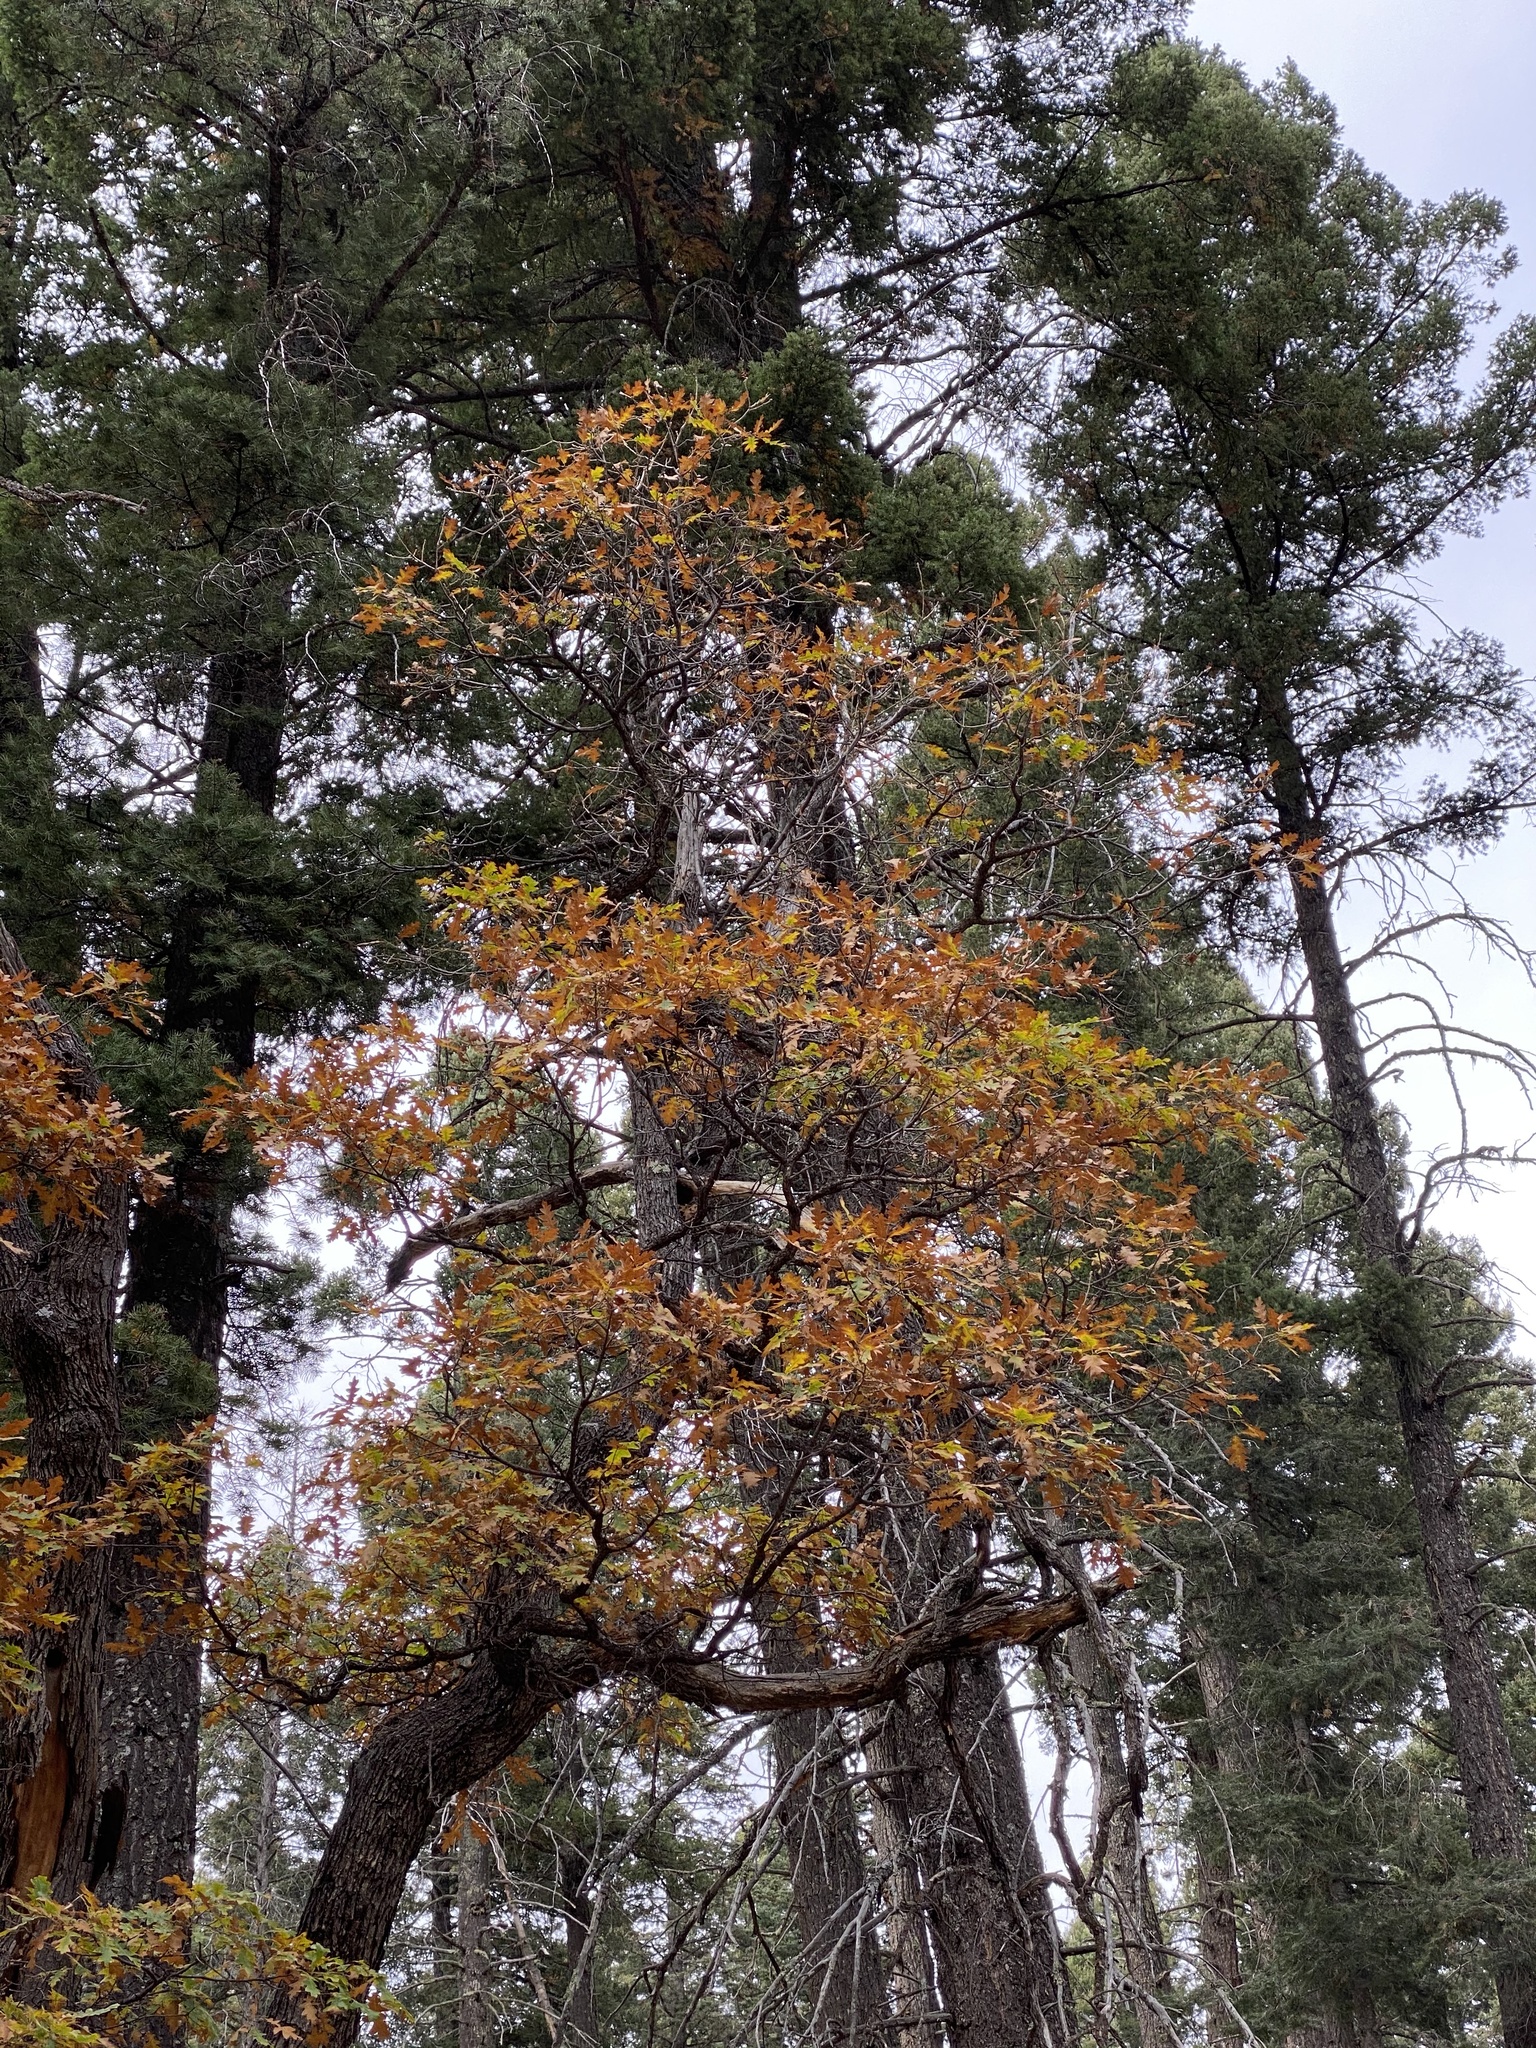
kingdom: Plantae
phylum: Tracheophyta
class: Magnoliopsida
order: Fagales
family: Fagaceae
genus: Quercus
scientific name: Quercus gambelii
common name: Gambel oak
